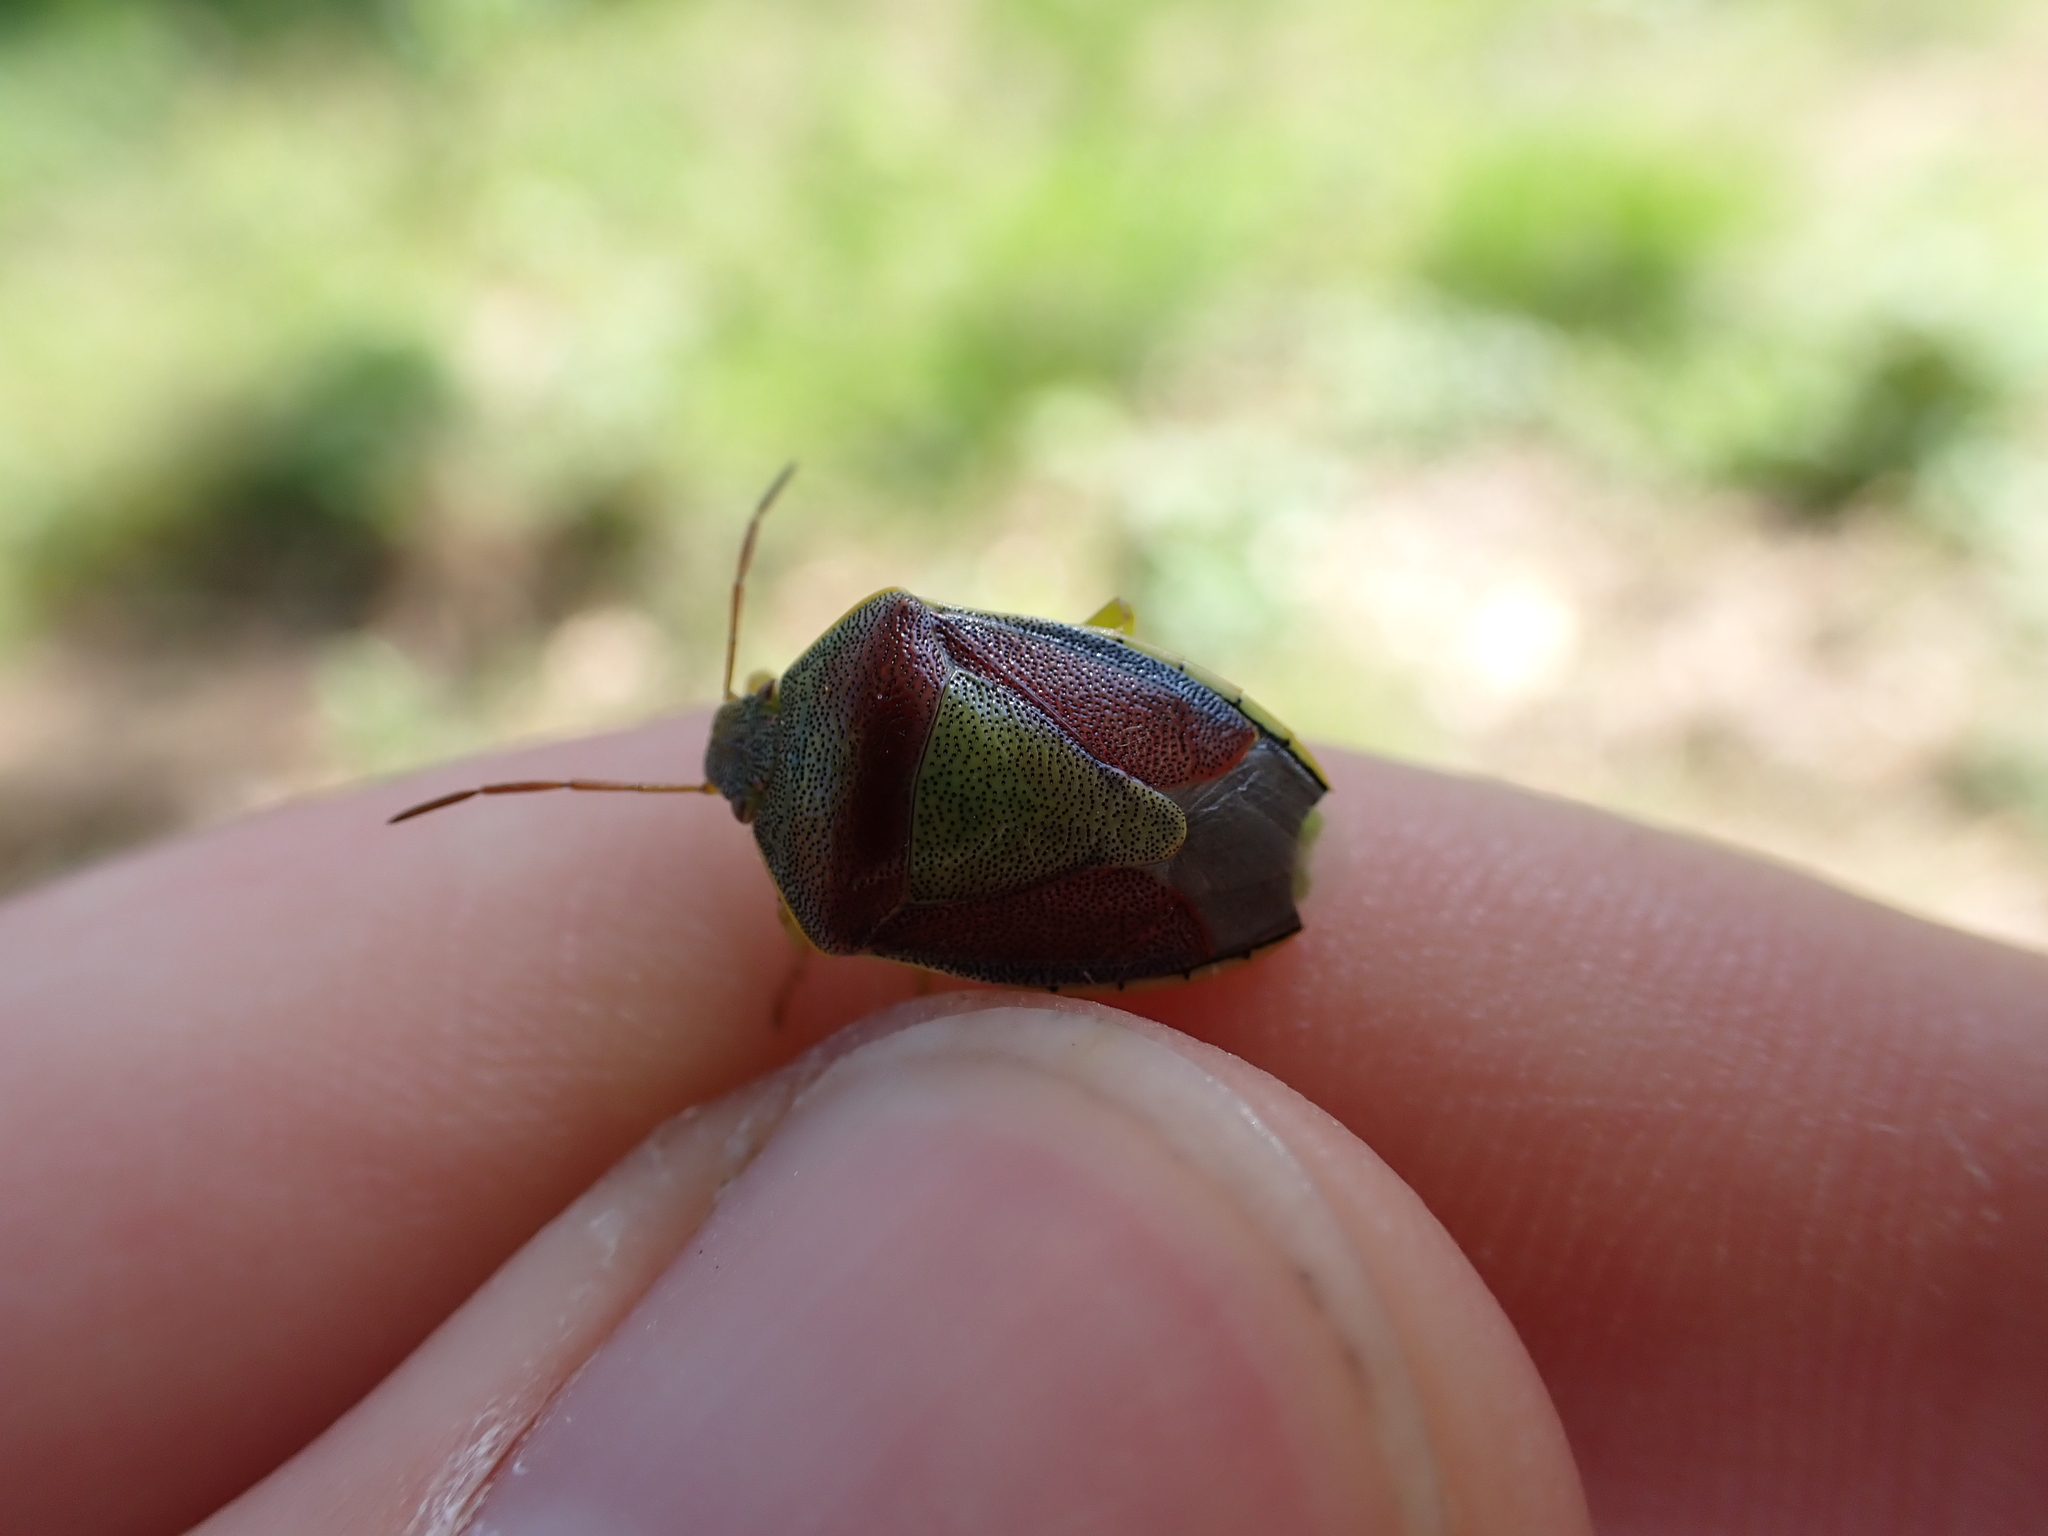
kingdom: Animalia
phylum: Arthropoda
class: Insecta
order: Hemiptera
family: Pentatomidae
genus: Piezodorus
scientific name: Piezodorus lituratus
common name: Stink bug
